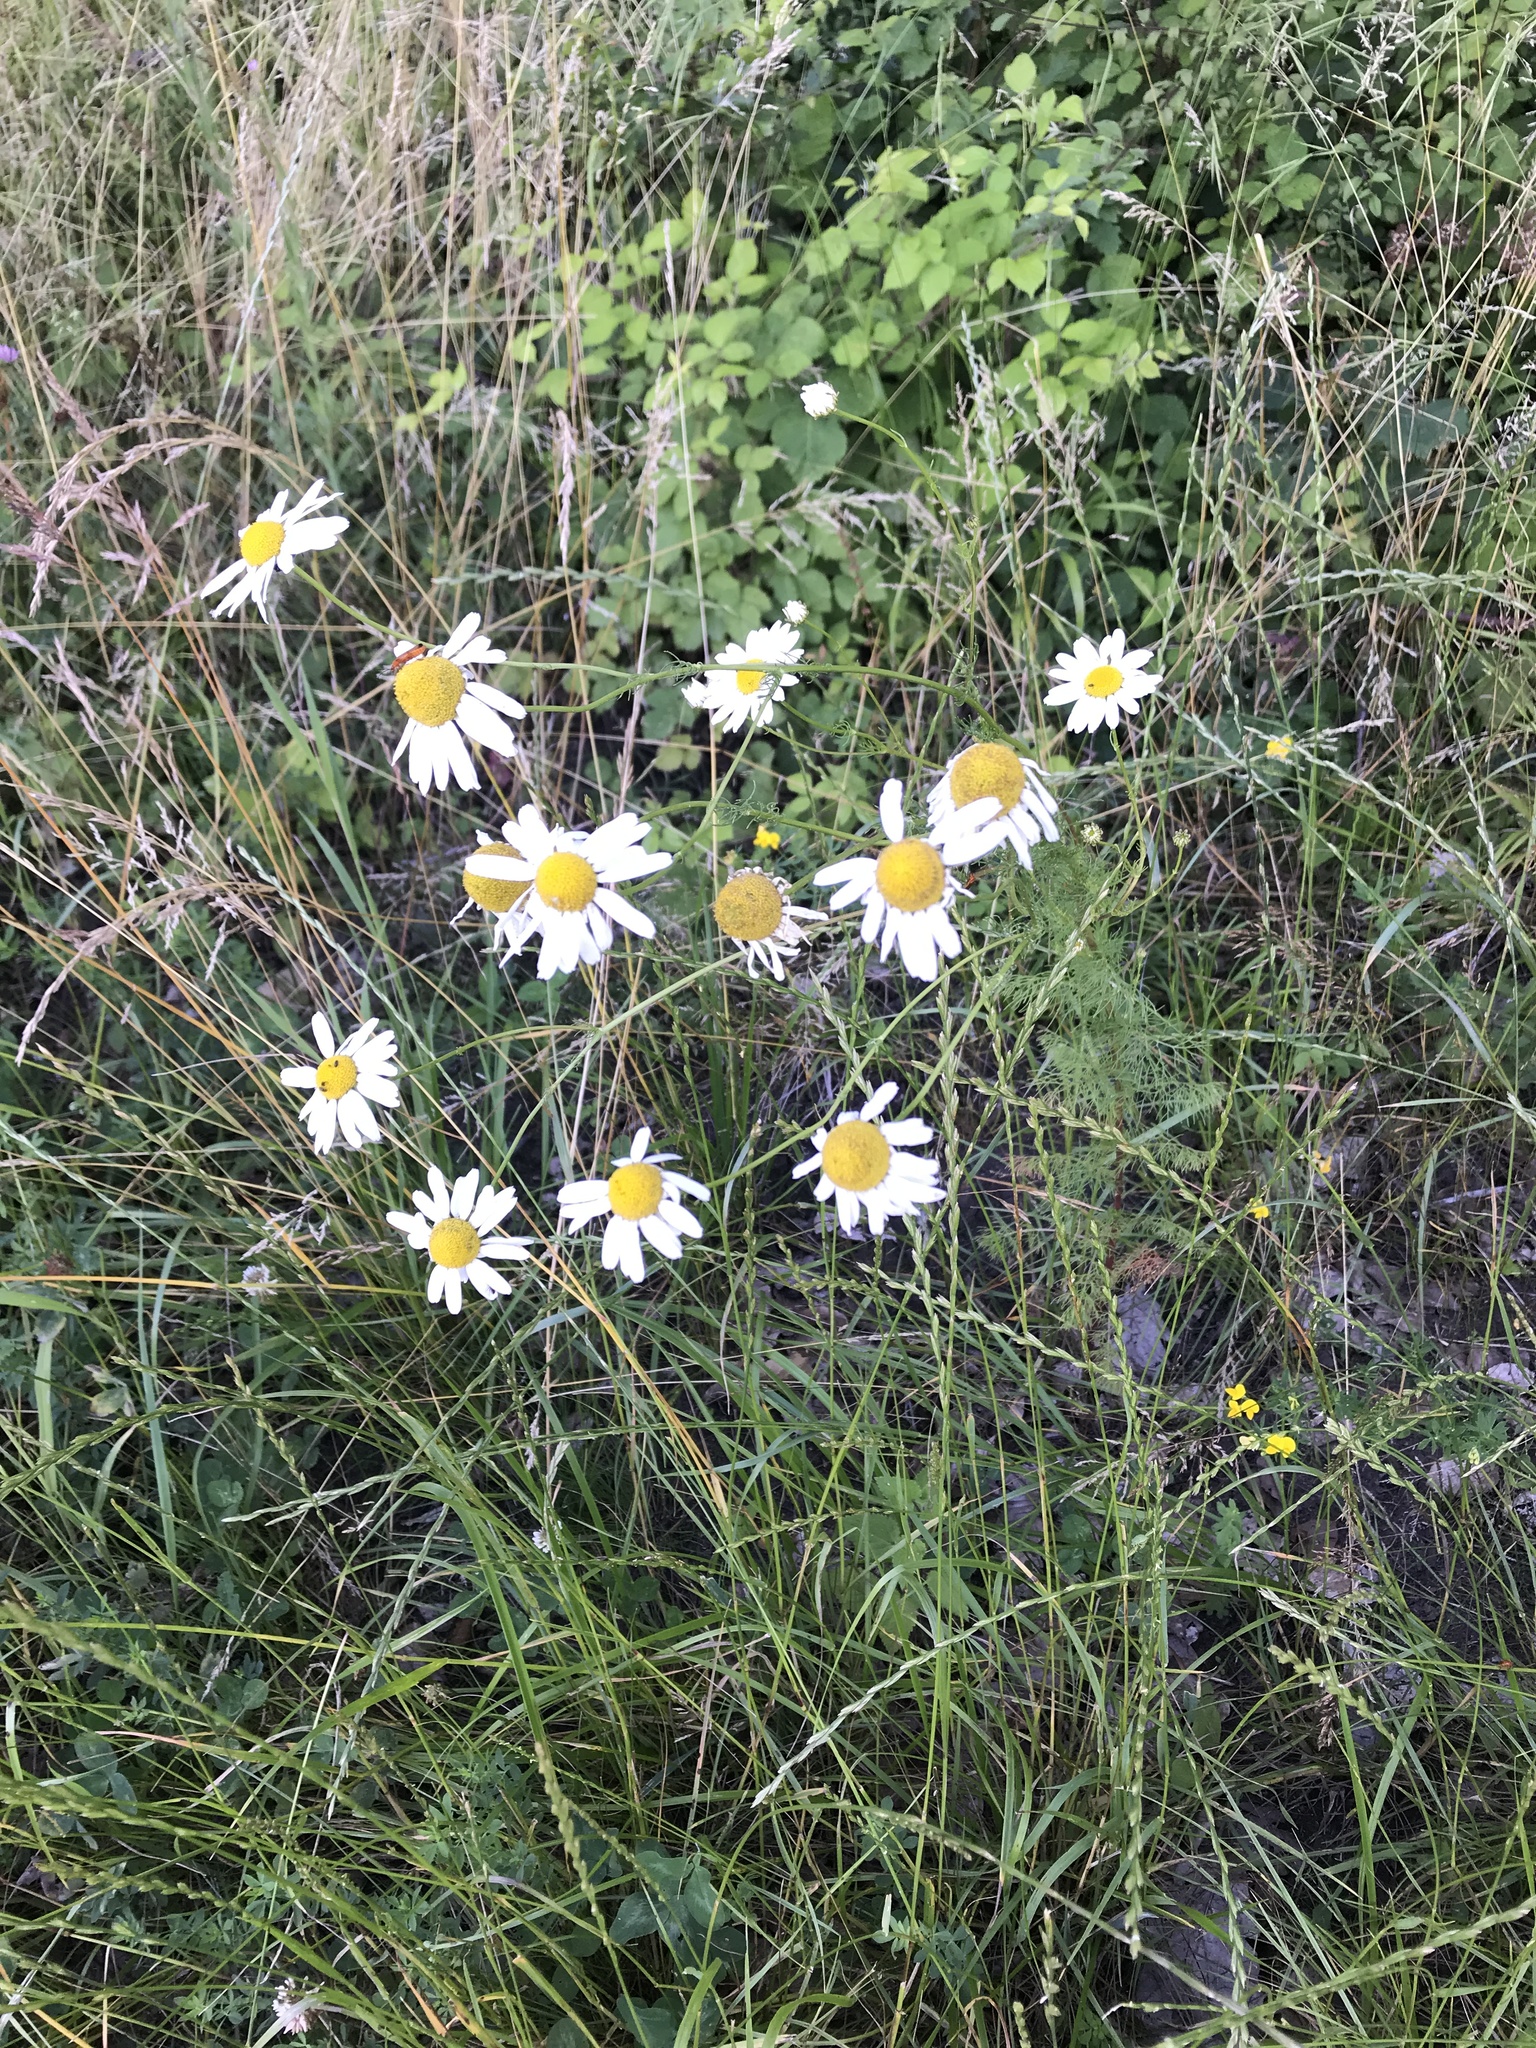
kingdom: Plantae
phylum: Tracheophyta
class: Magnoliopsida
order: Asterales
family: Asteraceae
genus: Tripleurospermum
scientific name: Tripleurospermum inodorum
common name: Scentless mayweed
